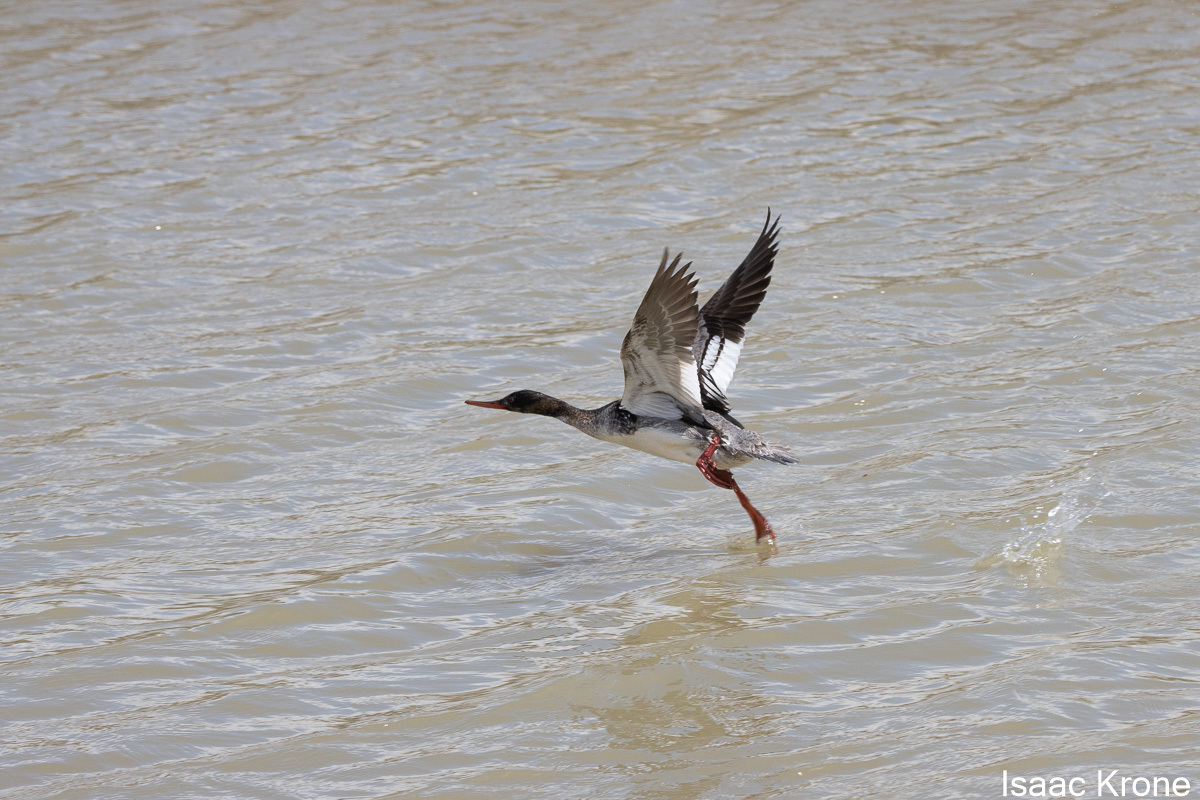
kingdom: Animalia
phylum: Chordata
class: Aves
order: Anseriformes
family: Anatidae
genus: Mergus
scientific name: Mergus serrator
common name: Red-breasted merganser
